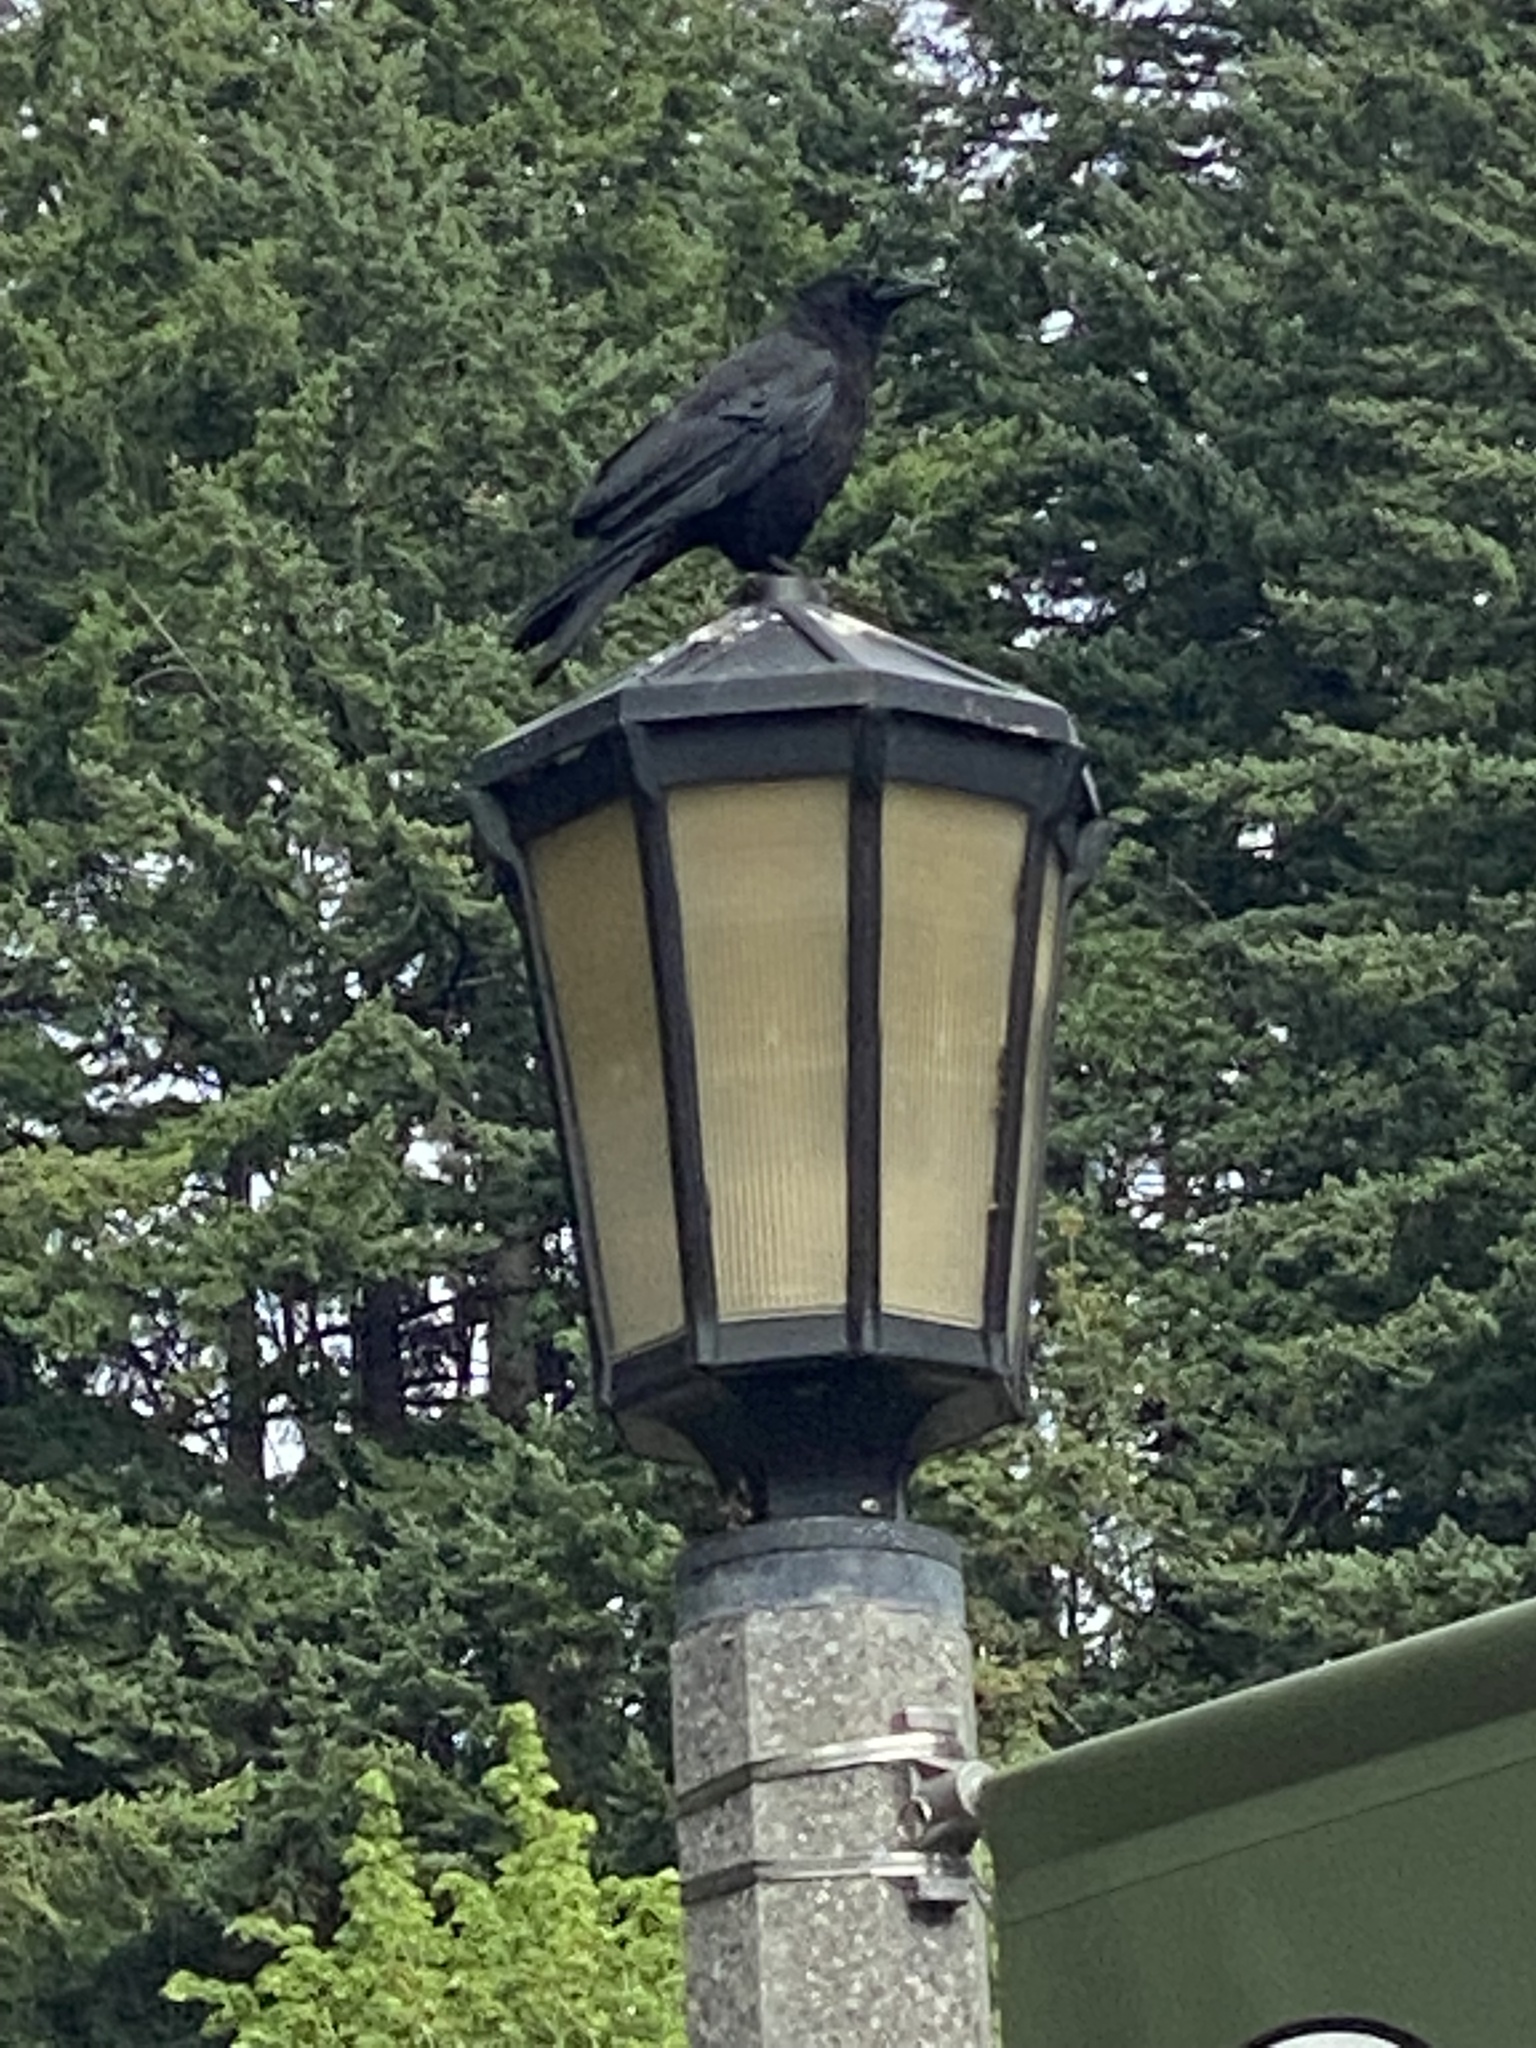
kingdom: Animalia
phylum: Chordata
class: Aves
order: Passeriformes
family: Corvidae
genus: Corvus
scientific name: Corvus brachyrhynchos
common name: American crow
